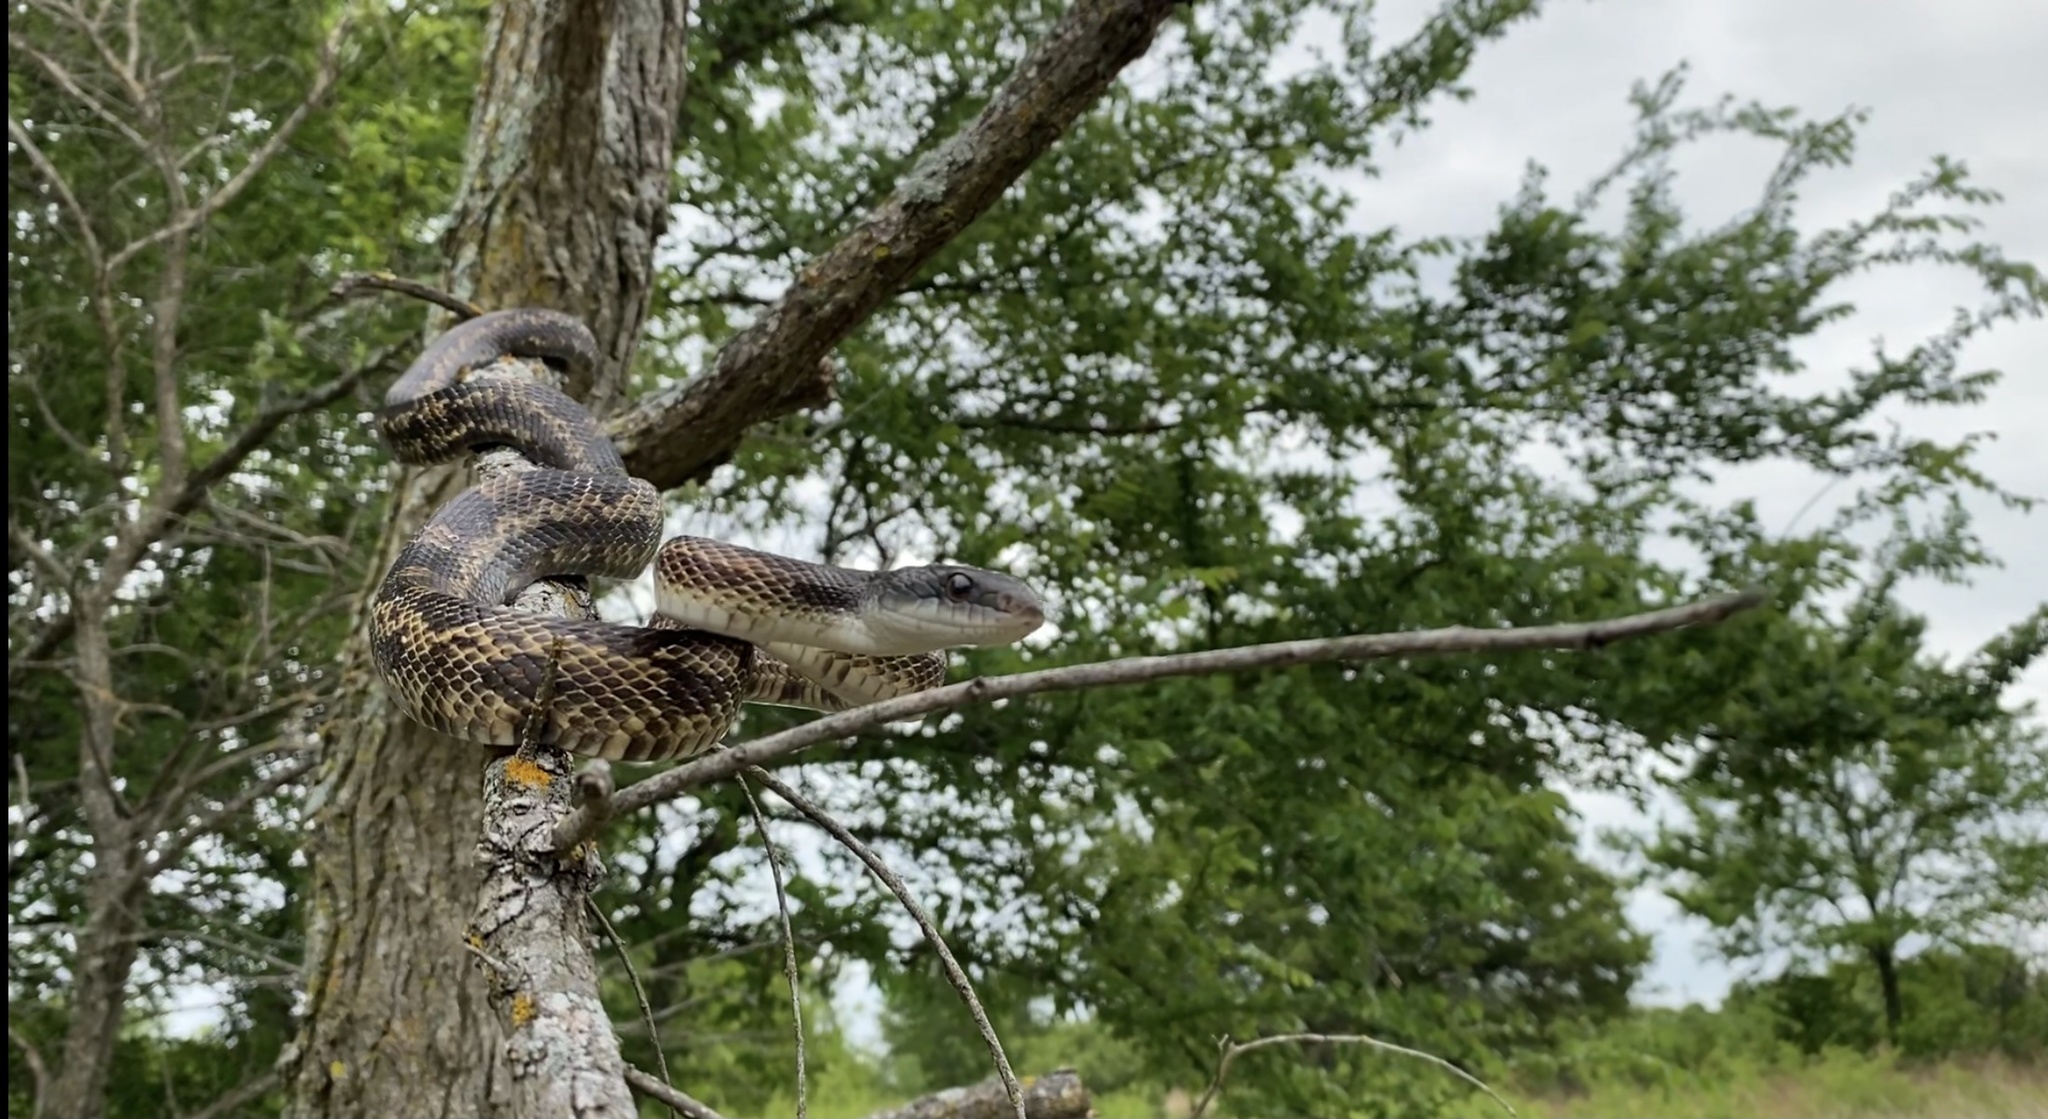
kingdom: Animalia
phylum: Chordata
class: Squamata
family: Colubridae
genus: Pantherophis
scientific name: Pantherophis obsoletus
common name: Black rat snake
